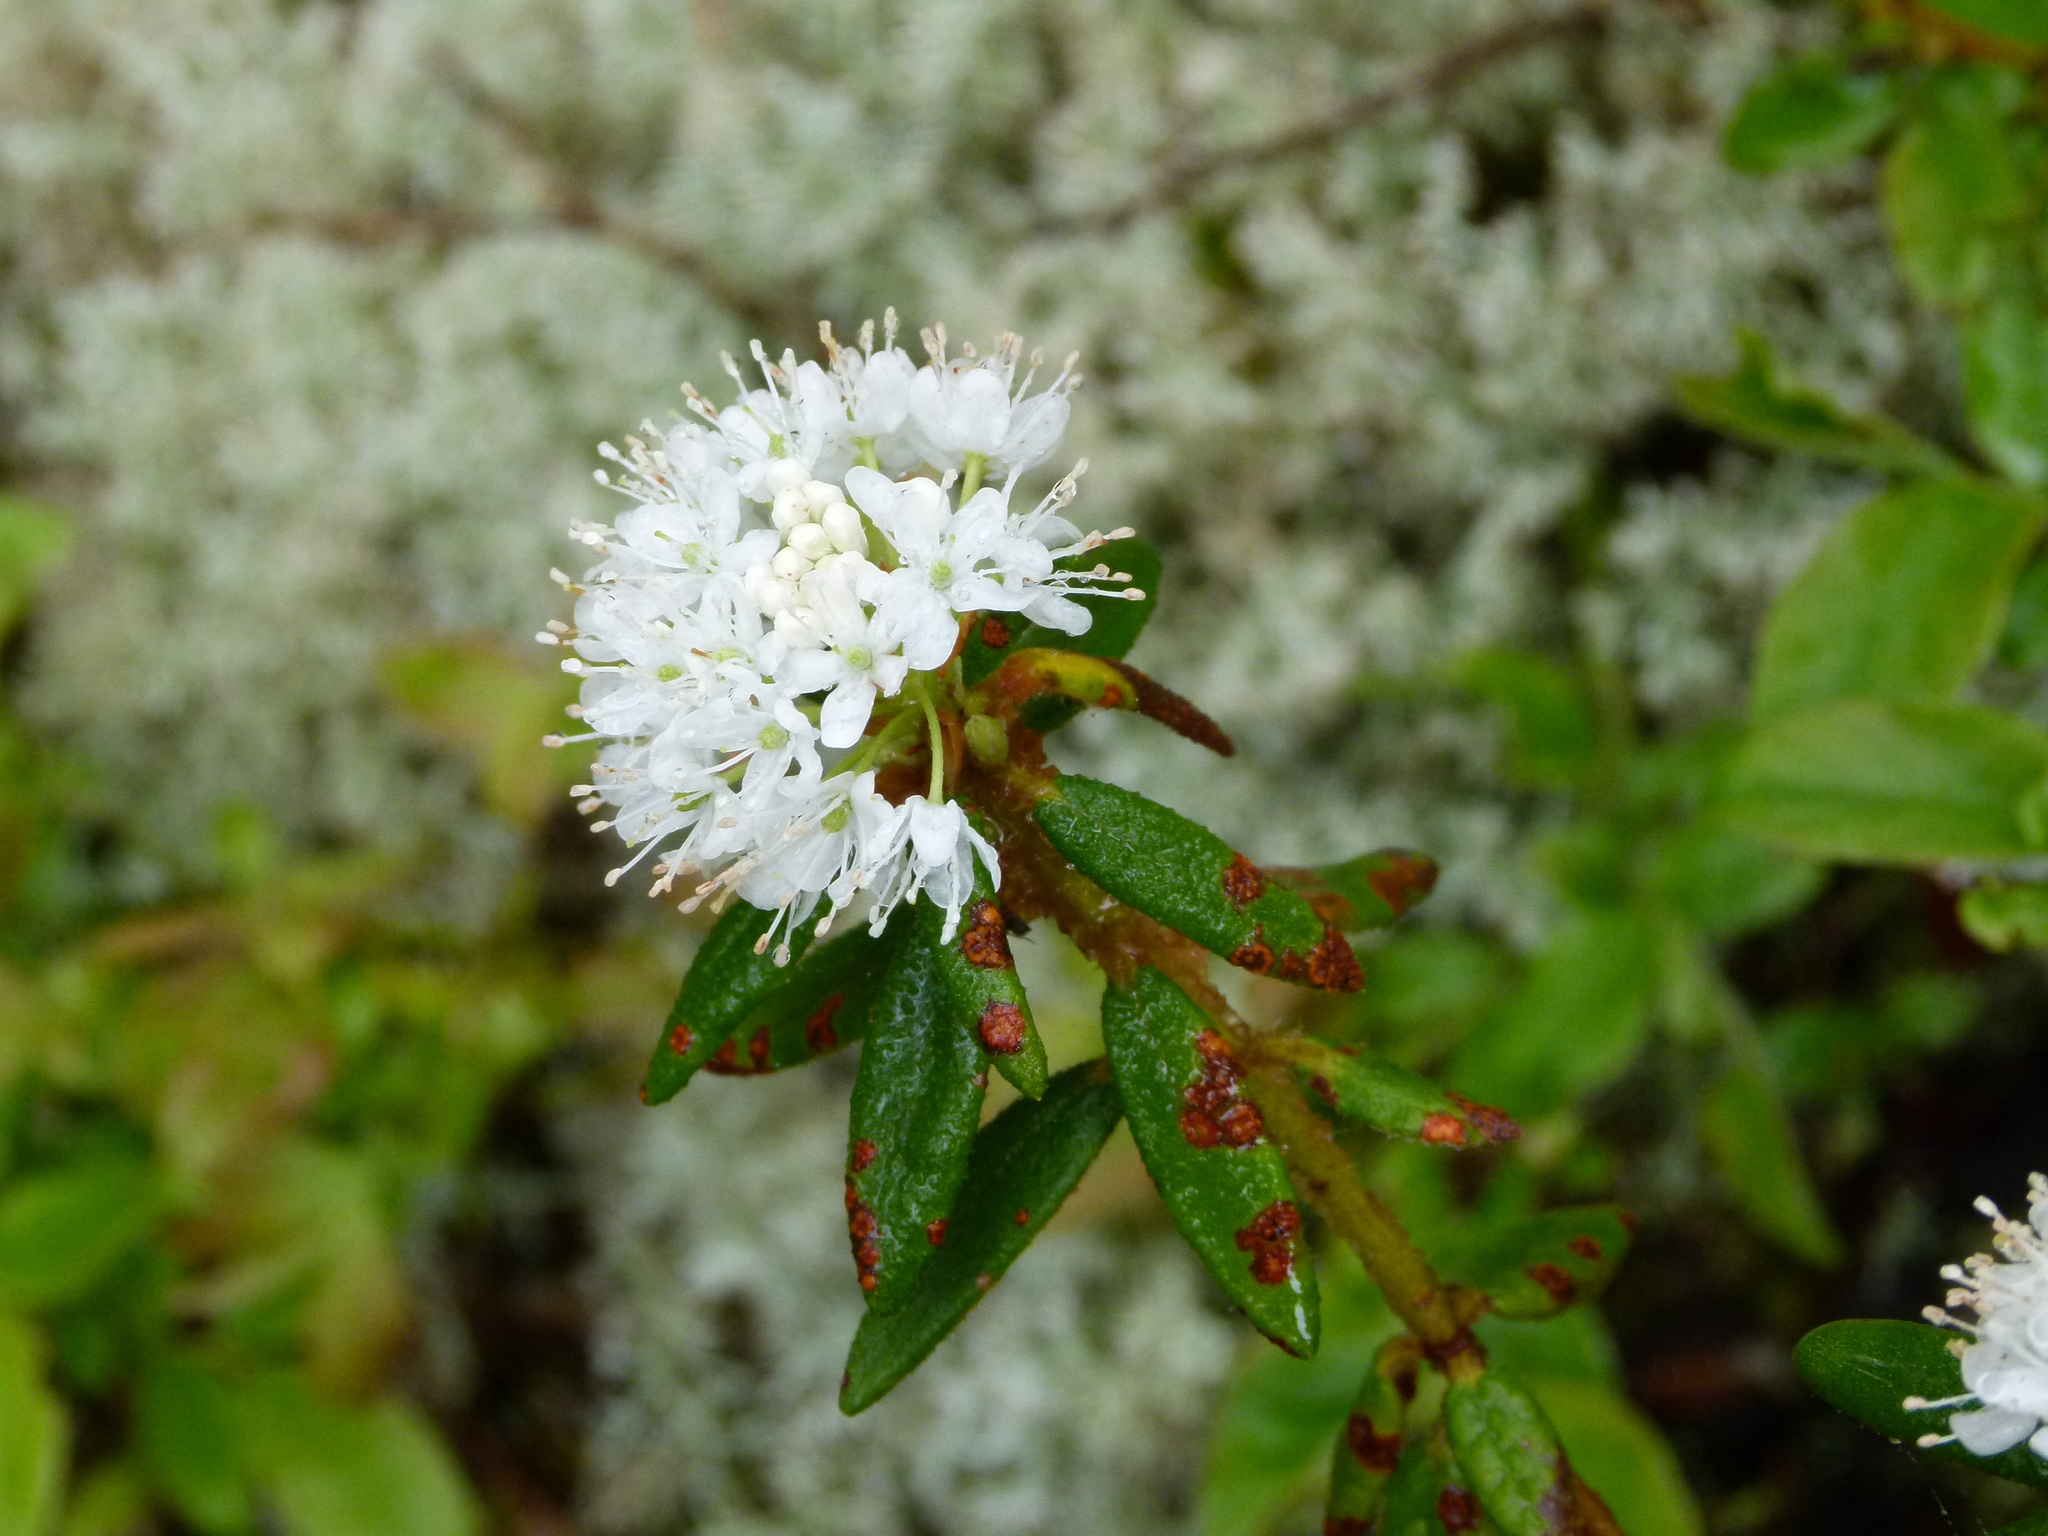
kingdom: Plantae
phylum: Tracheophyta
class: Magnoliopsida
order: Ericales
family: Ericaceae
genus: Rhododendron
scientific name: Rhododendron groenlandicum
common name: Bog labrador tea
